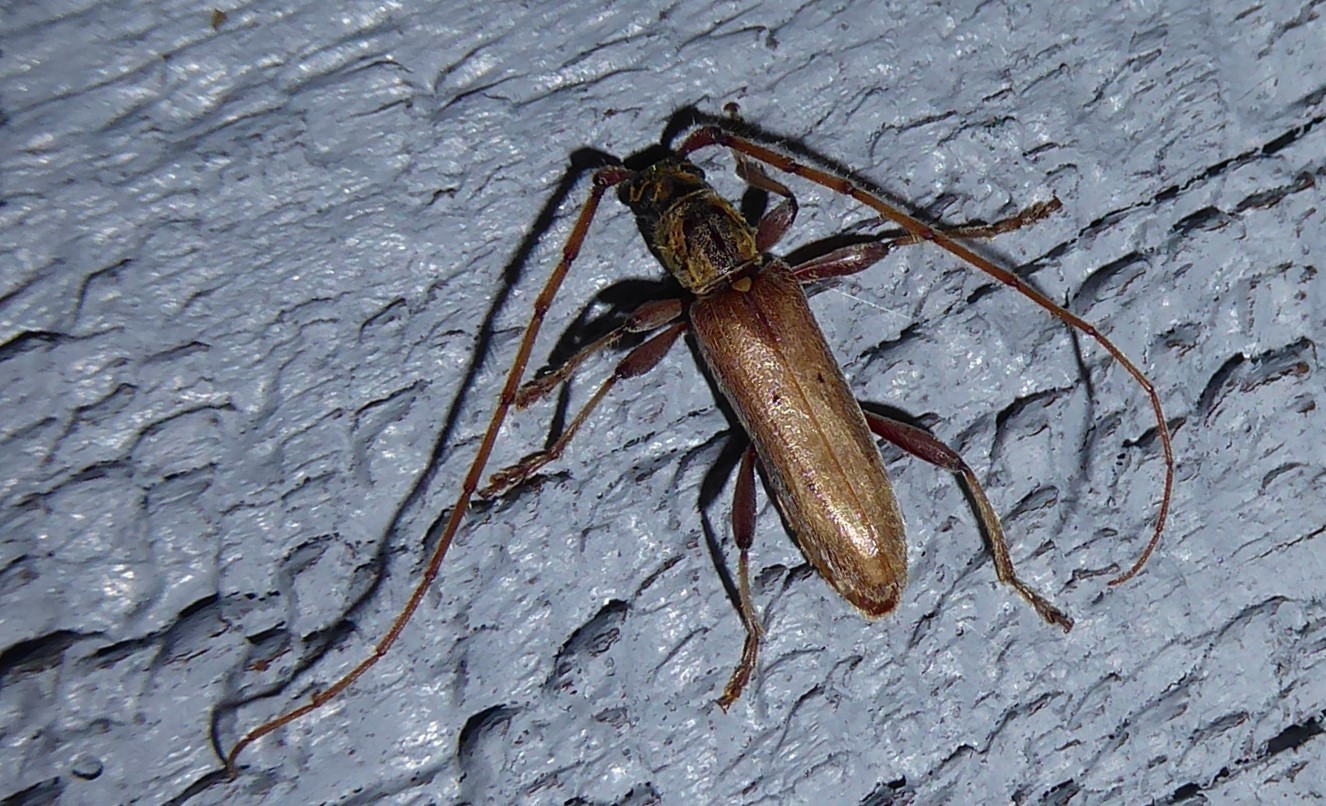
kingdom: Animalia
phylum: Arthropoda
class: Insecta
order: Coleoptera
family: Cerambycidae
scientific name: Cerambycidae
